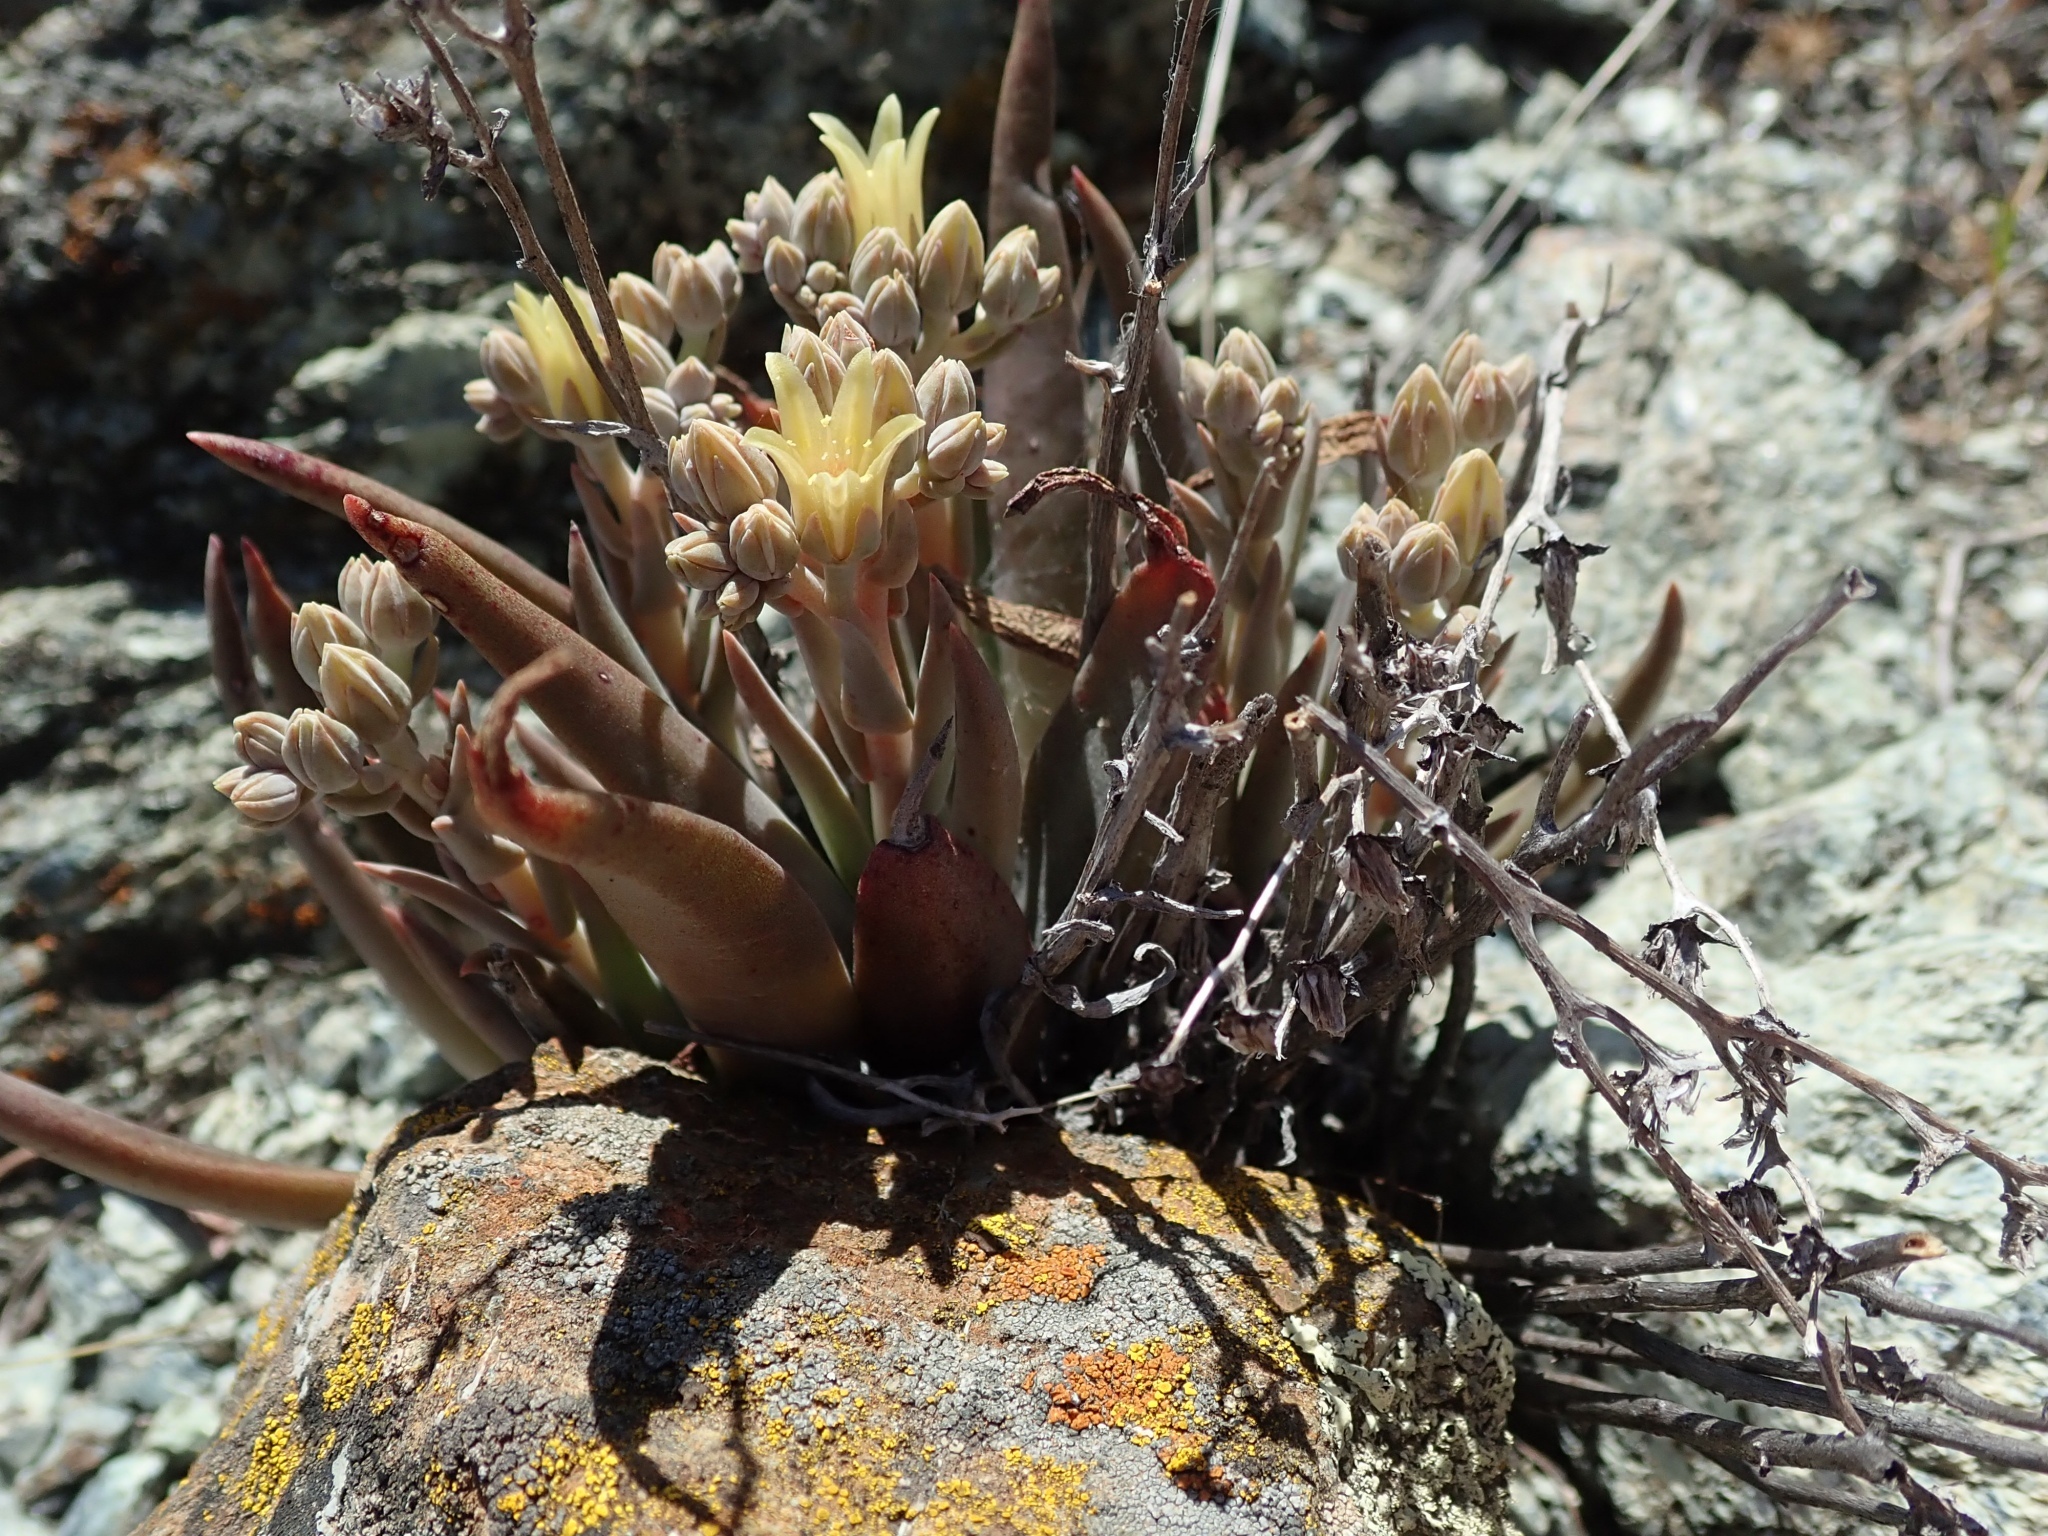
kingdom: Plantae
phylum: Tracheophyta
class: Magnoliopsida
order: Saxifragales
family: Crassulaceae
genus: Dudleya
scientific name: Dudleya abramsii
